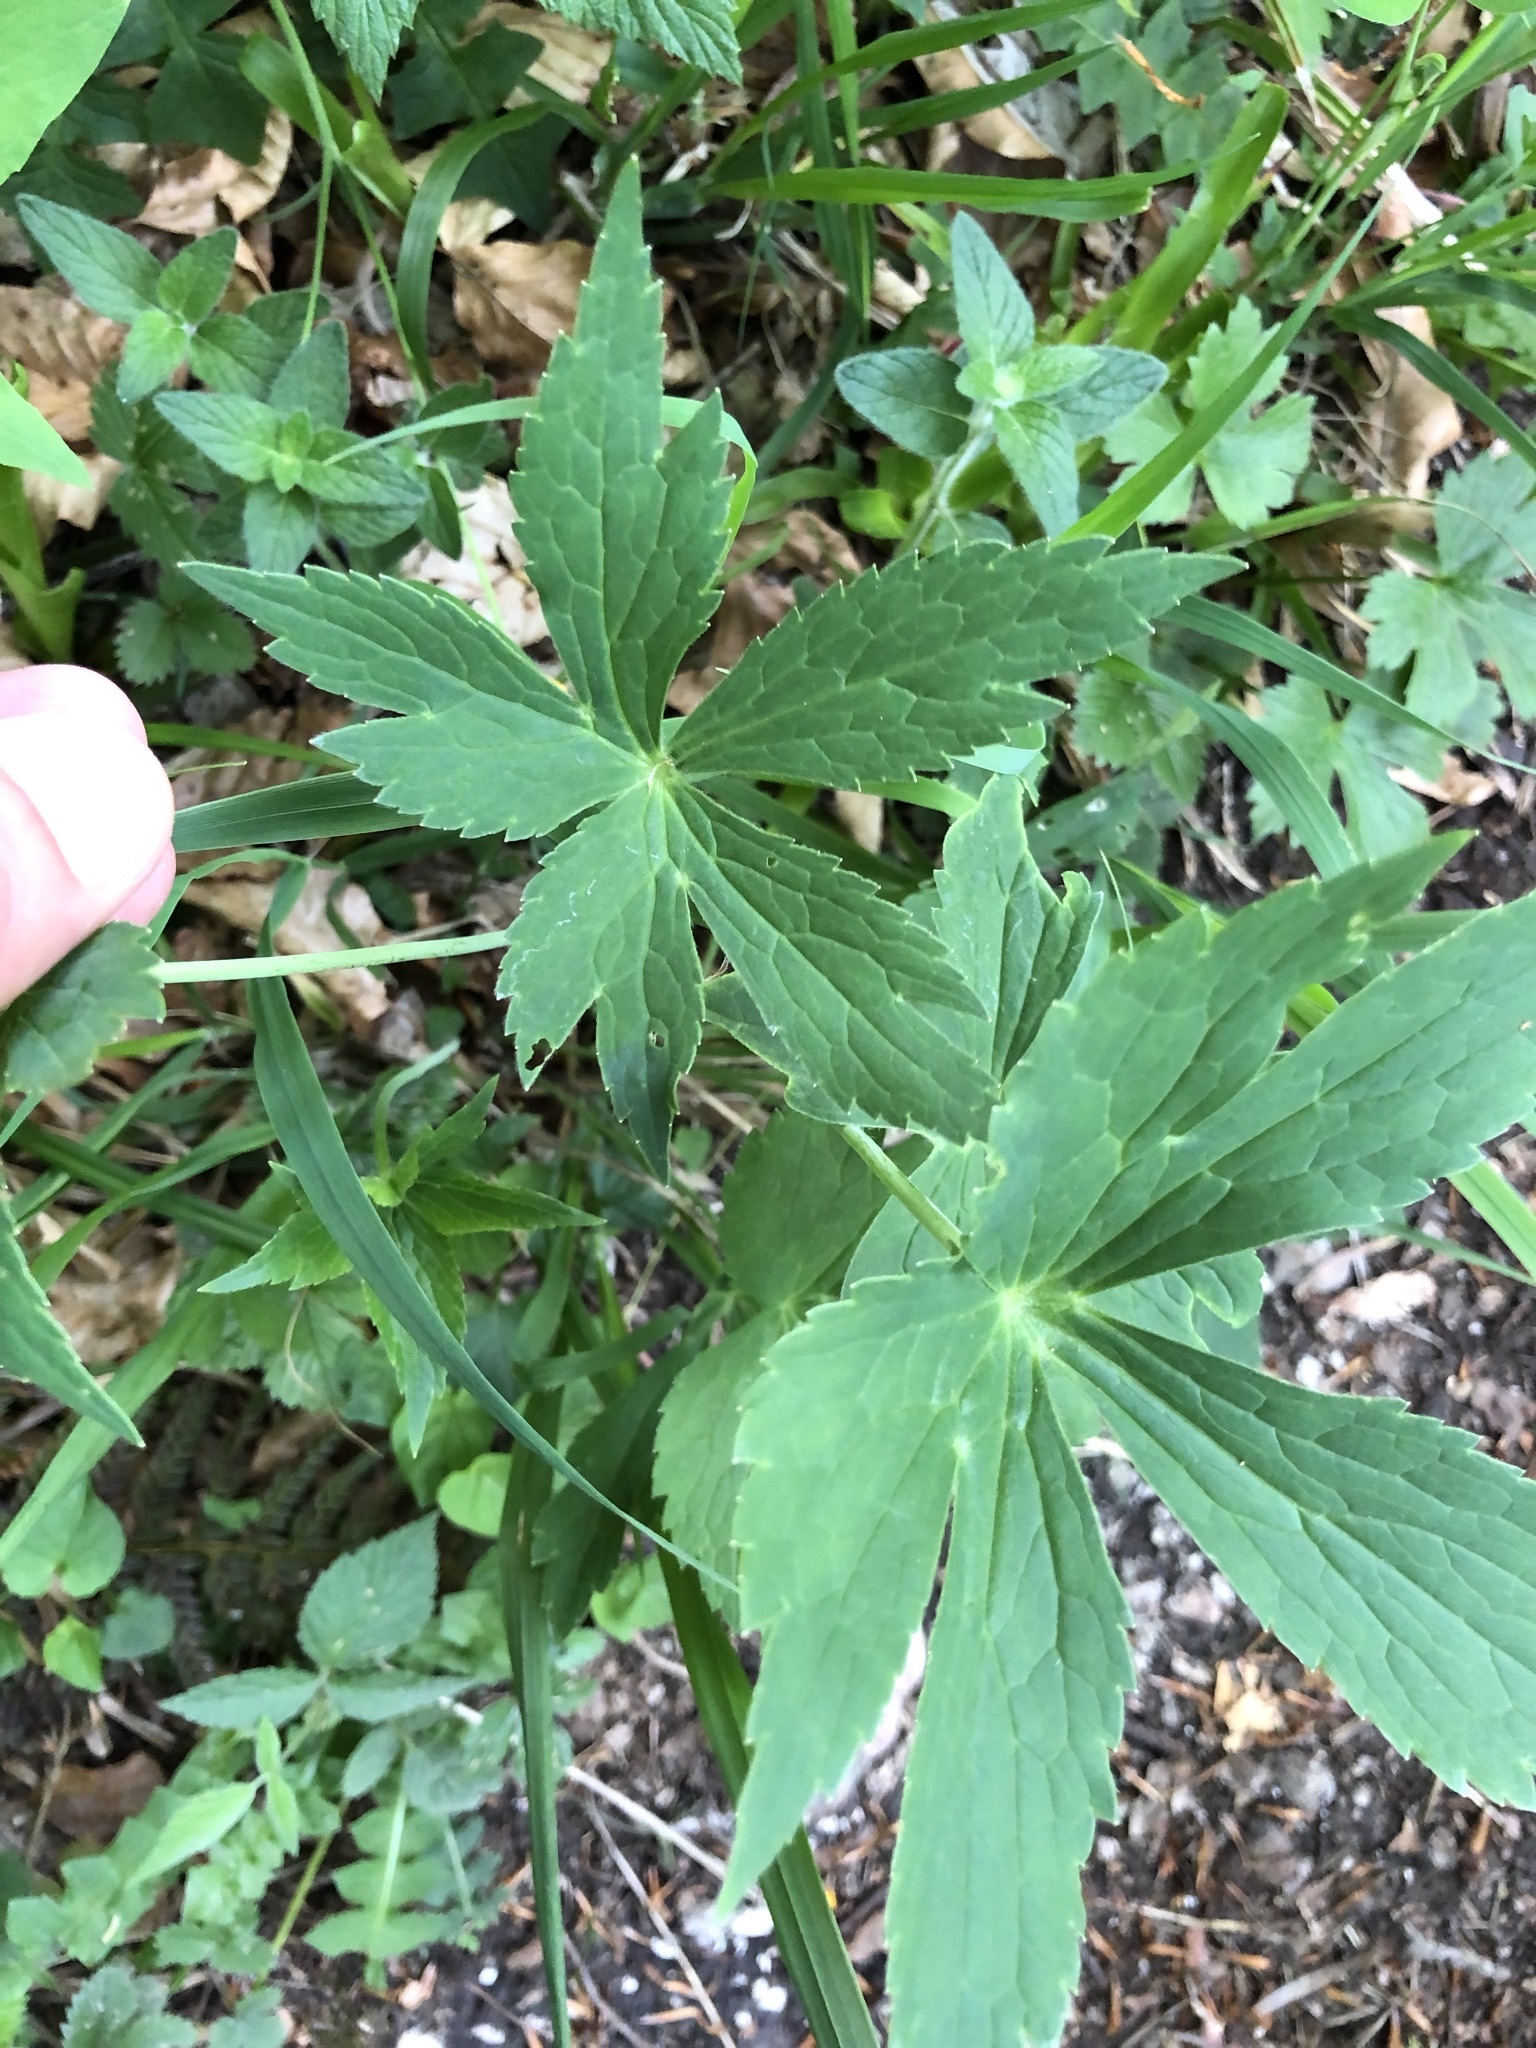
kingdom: Plantae
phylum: Tracheophyta
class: Magnoliopsida
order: Ranunculales
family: Ranunculaceae
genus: Ranunculus
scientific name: Ranunculus platanifolius
